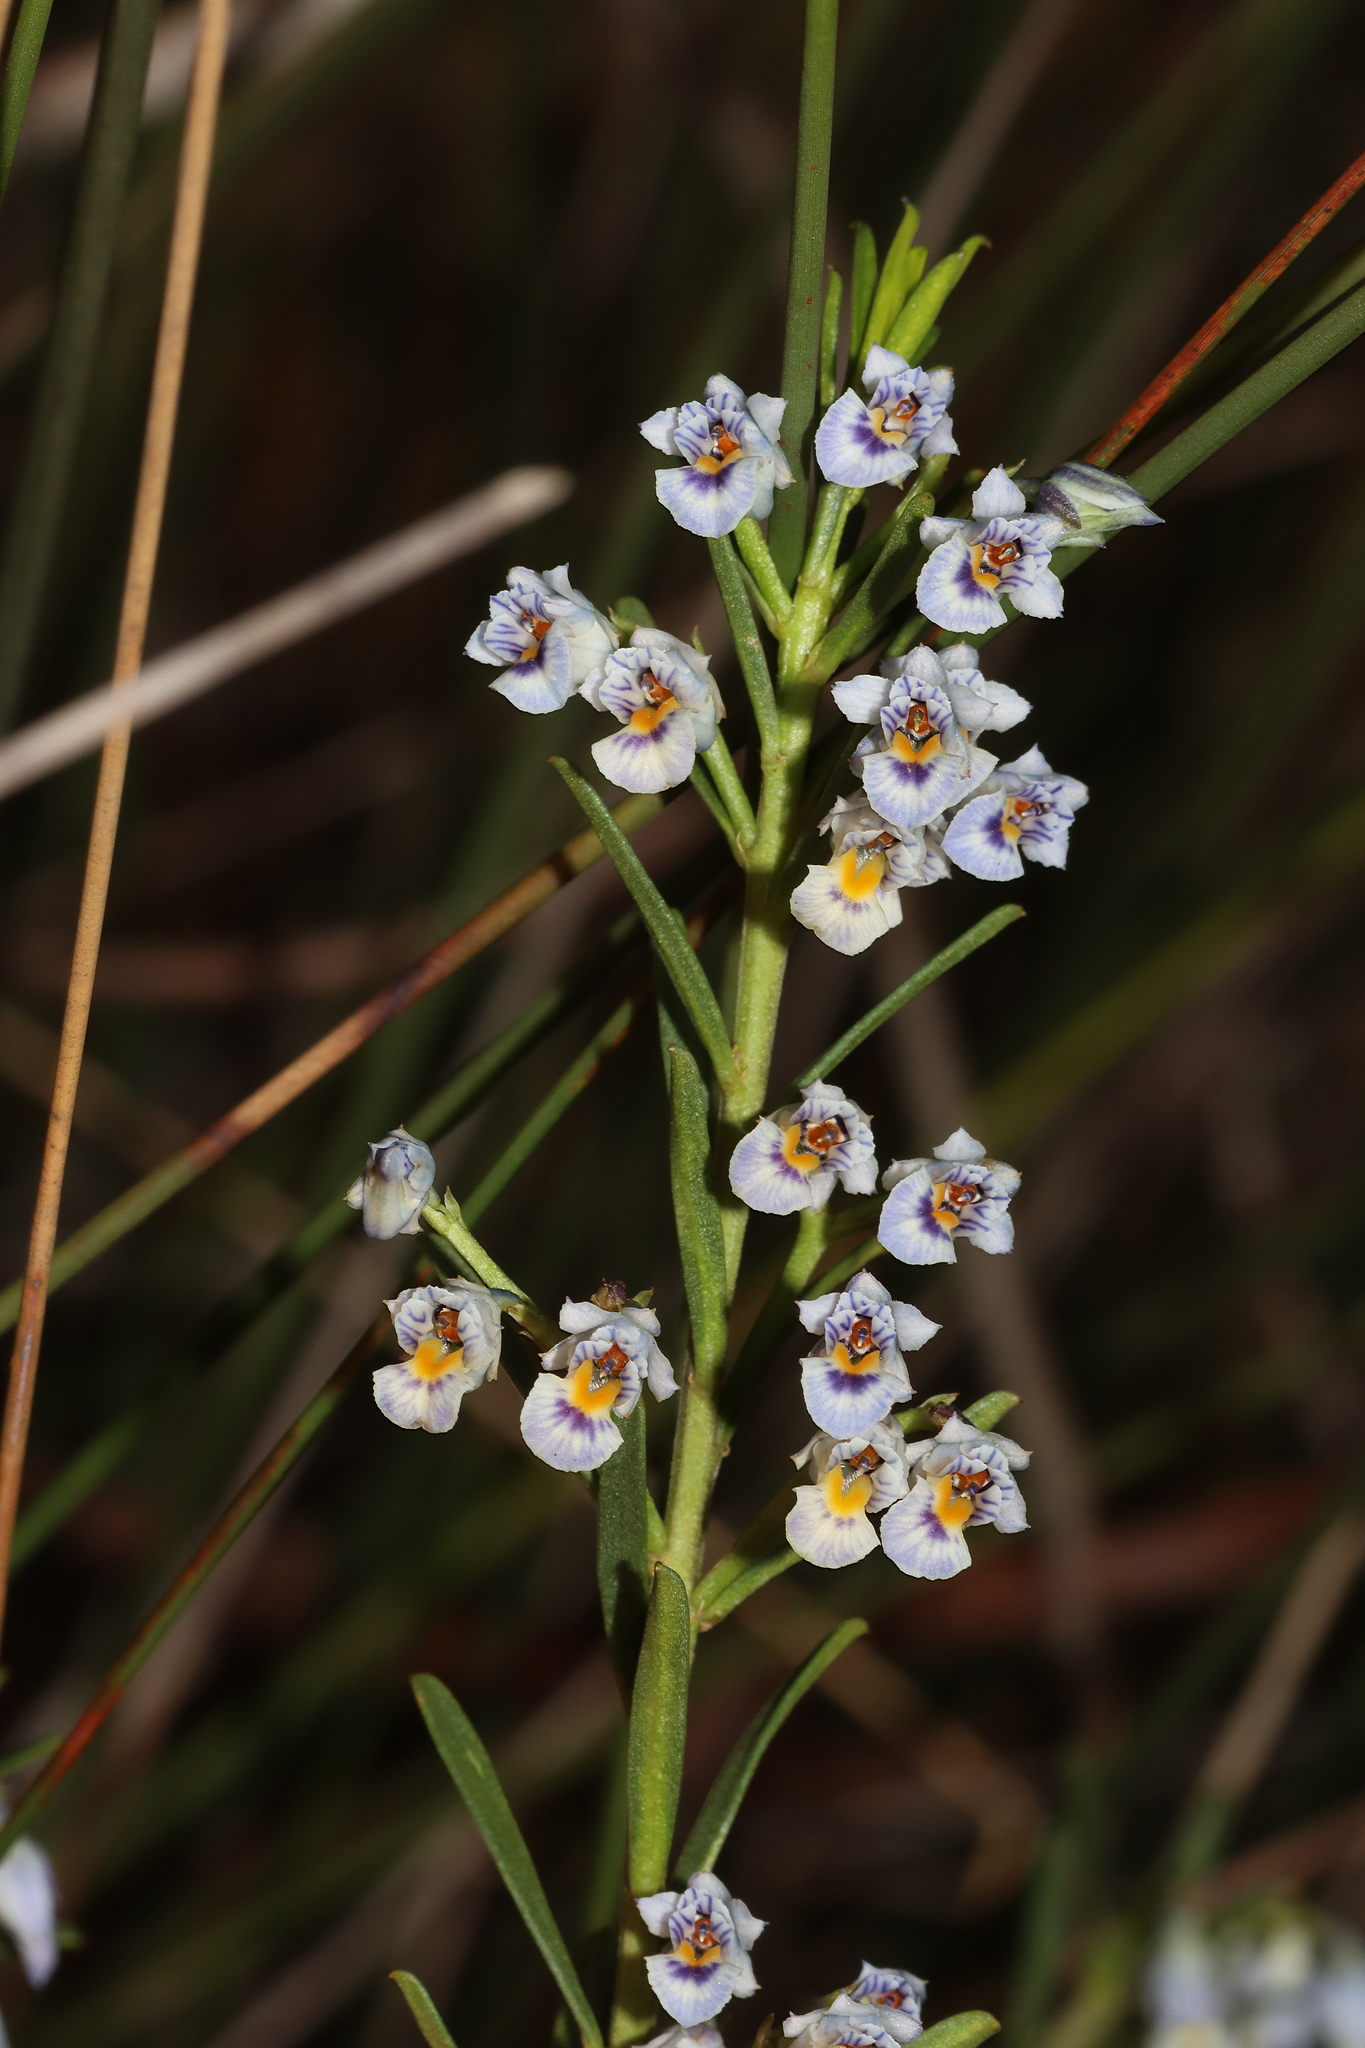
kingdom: Plantae
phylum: Tracheophyta
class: Magnoliopsida
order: Malpighiales
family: Violaceae
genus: Pigea
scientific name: Pigea floribunda
